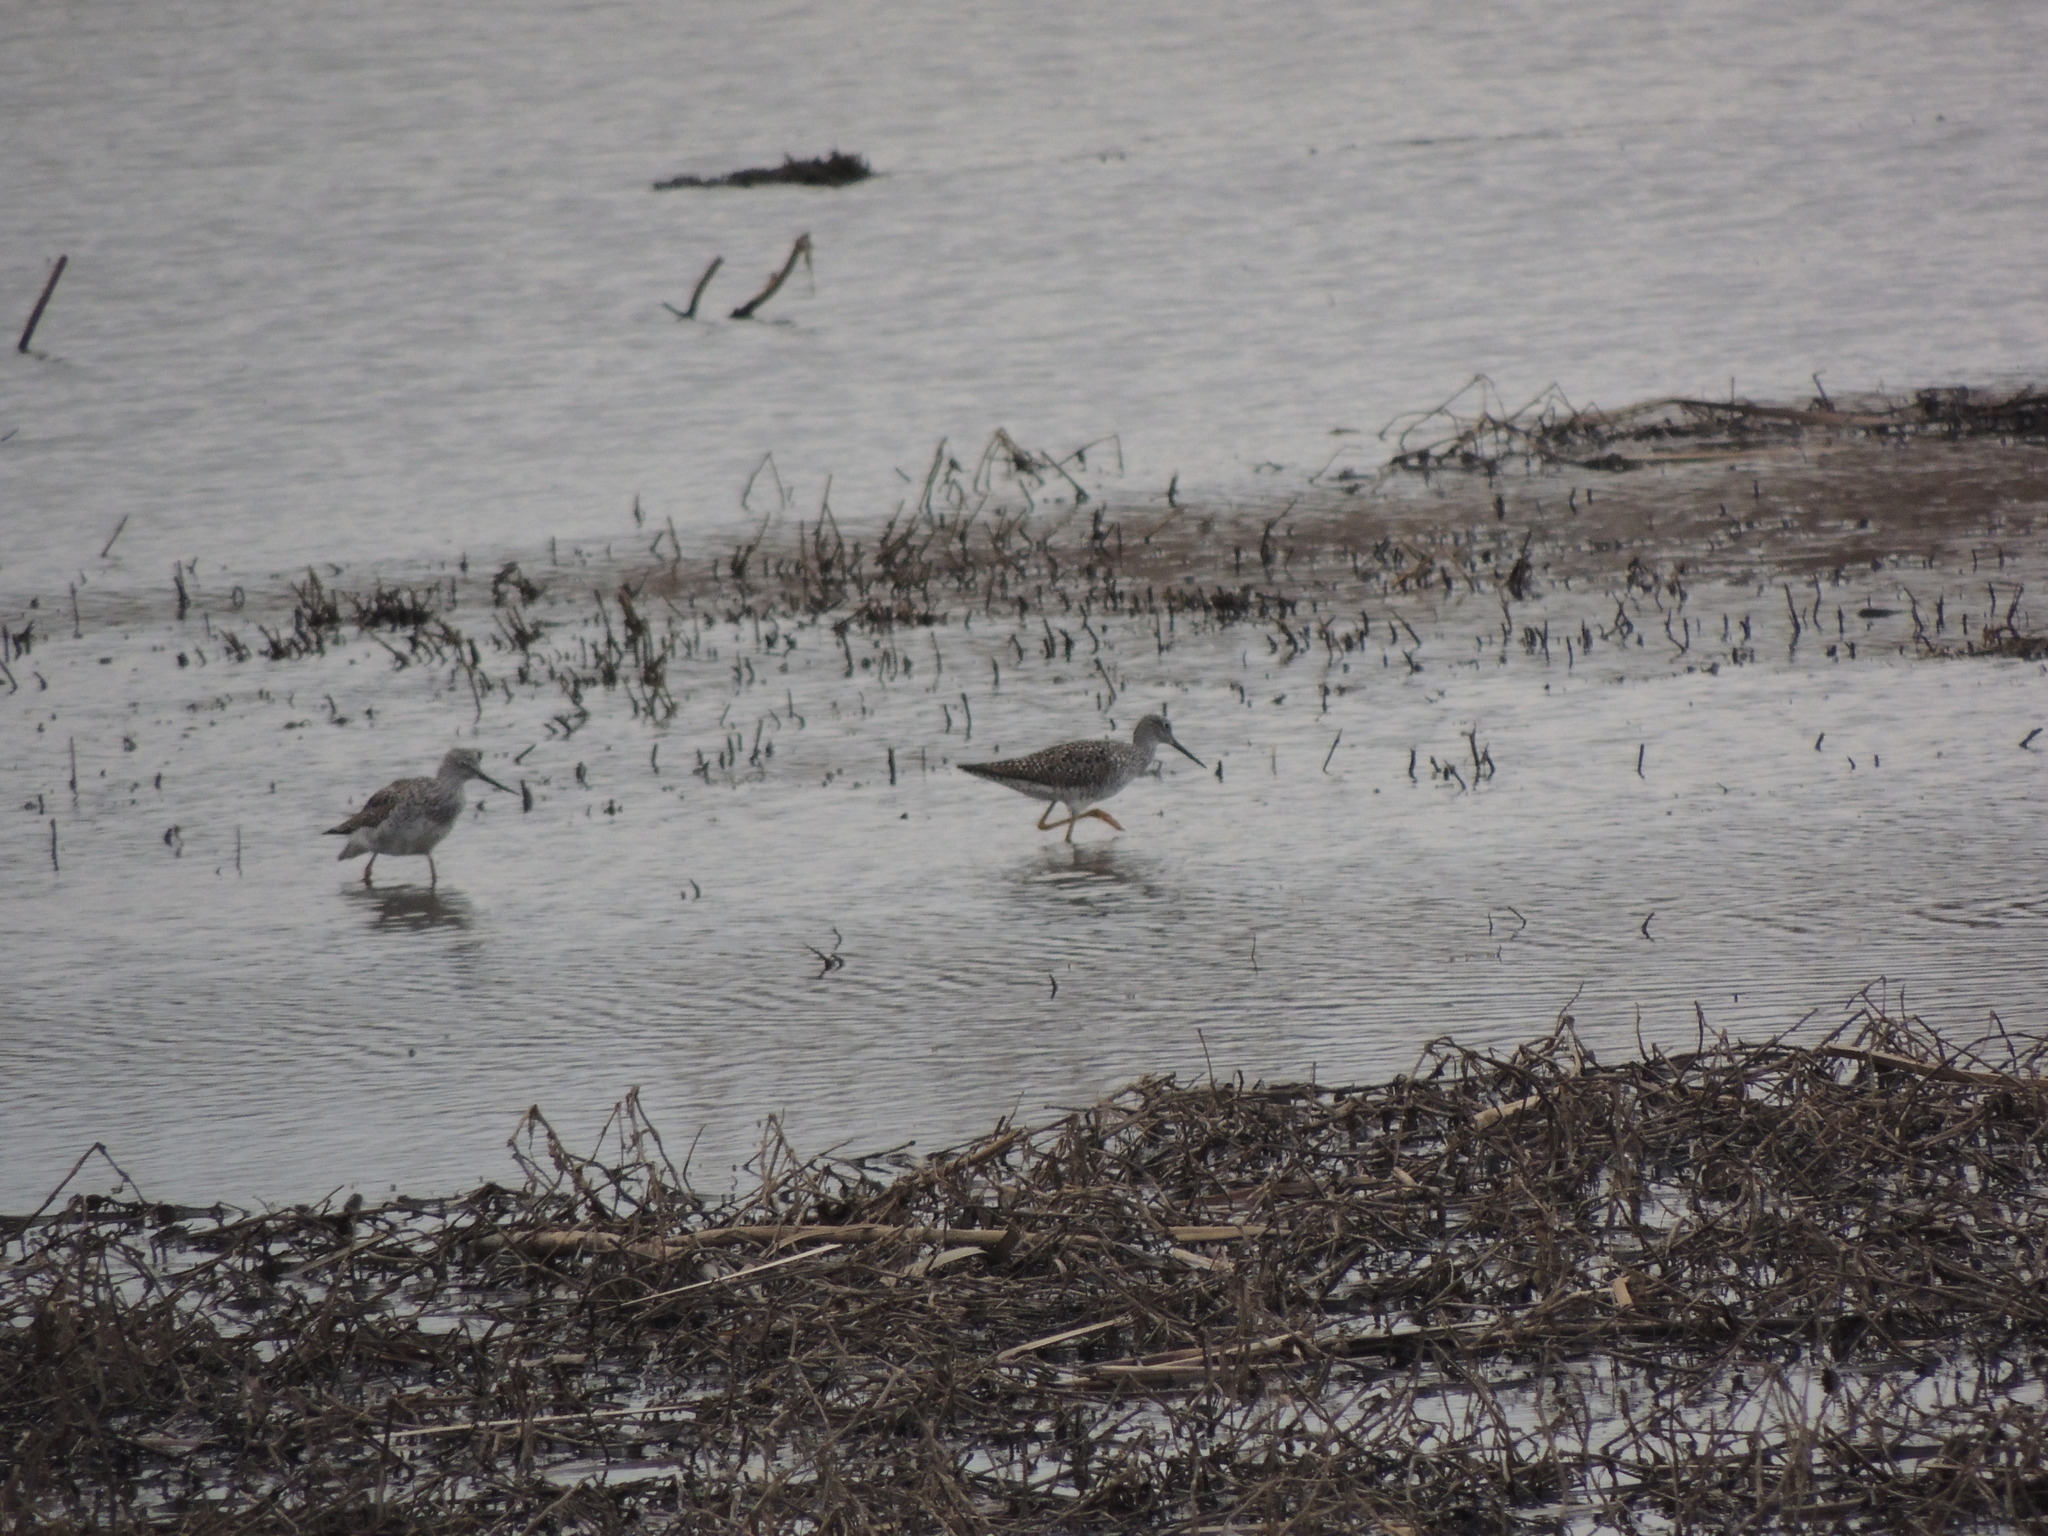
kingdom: Animalia
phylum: Chordata
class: Aves
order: Charadriiformes
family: Scolopacidae
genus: Tringa
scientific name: Tringa melanoleuca
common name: Greater yellowlegs
